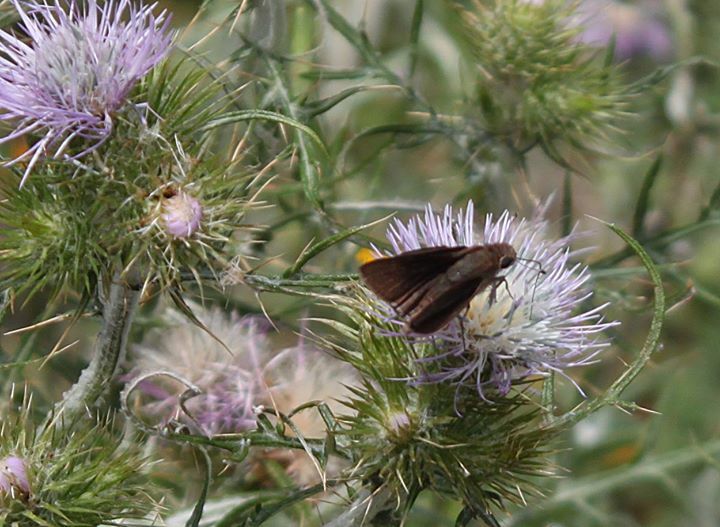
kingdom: Animalia
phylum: Arthropoda
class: Insecta
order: Lepidoptera
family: Hesperiidae
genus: Gegenes
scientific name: Gegenes pumilio
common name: Pigmy skipper
